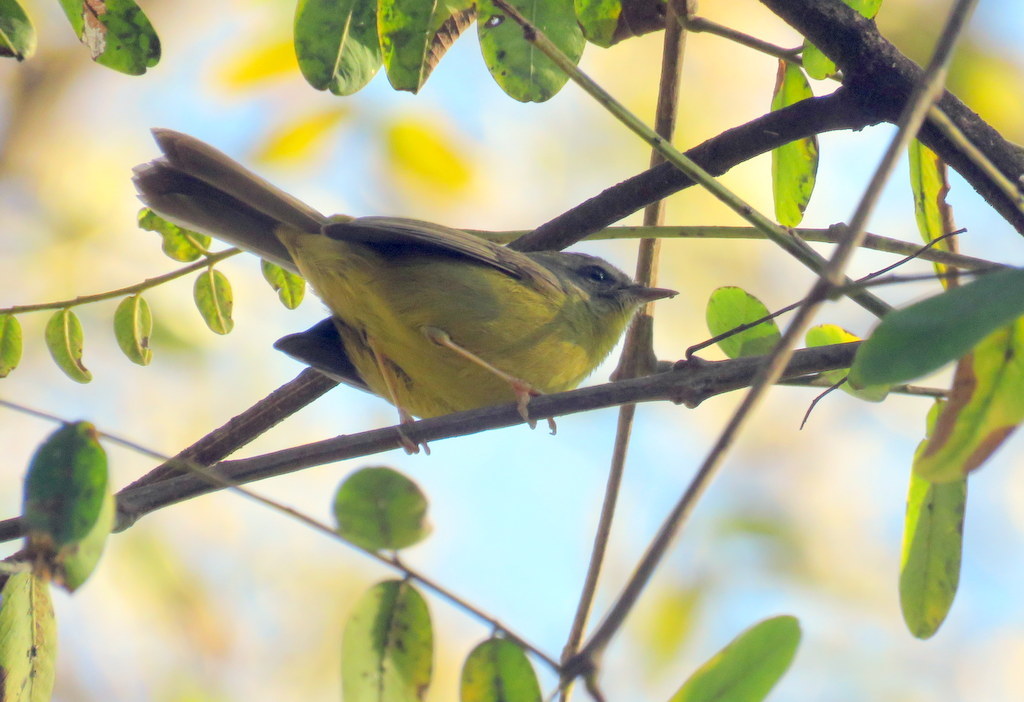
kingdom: Animalia
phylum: Chordata
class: Aves
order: Passeriformes
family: Parulidae
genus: Basileuterus
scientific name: Basileuterus culicivorus
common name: Golden-crowned warbler
